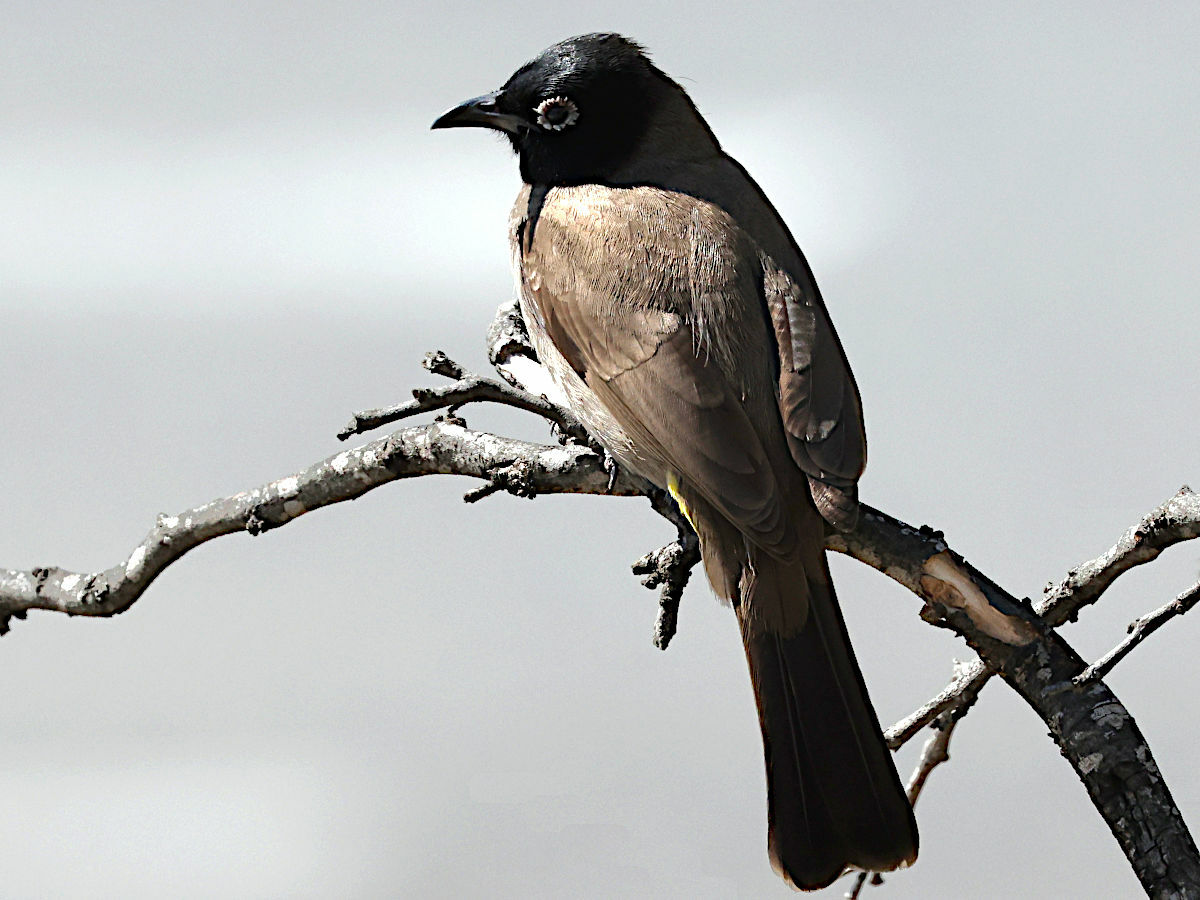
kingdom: Animalia
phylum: Chordata
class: Aves
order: Passeriformes
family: Pycnonotidae
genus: Pycnonotus
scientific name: Pycnonotus xanthopygos
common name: White-spectacled bulbul
